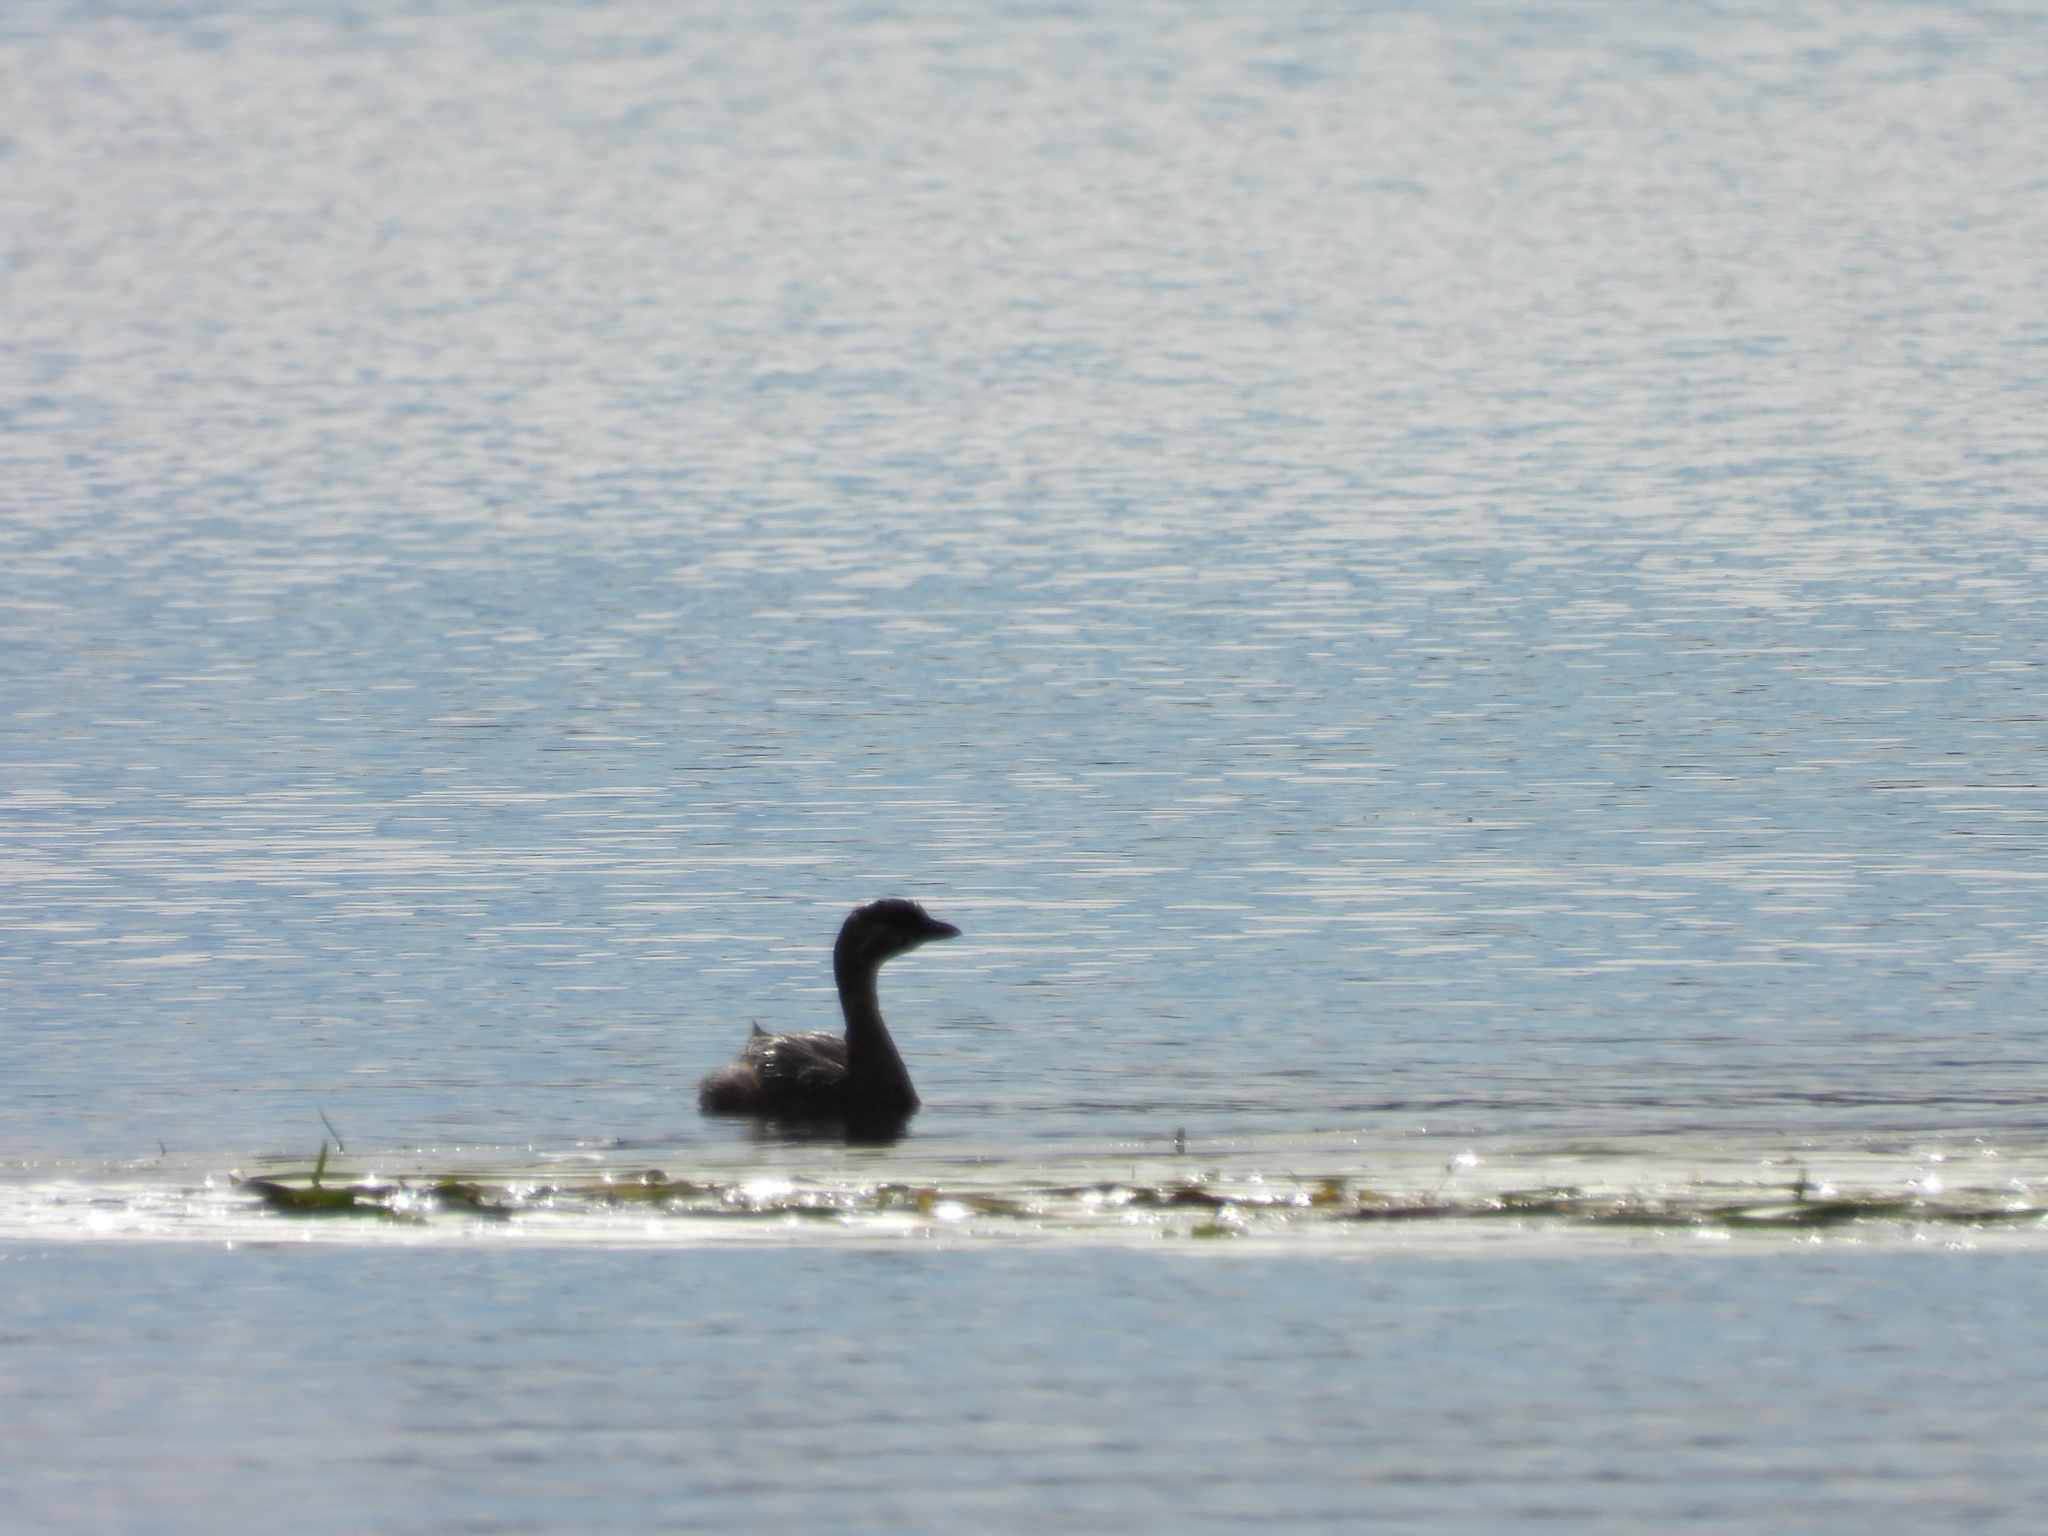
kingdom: Animalia
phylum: Chordata
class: Aves
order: Podicipediformes
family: Podicipedidae
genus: Podilymbus
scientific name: Podilymbus podiceps
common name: Pied-billed grebe
